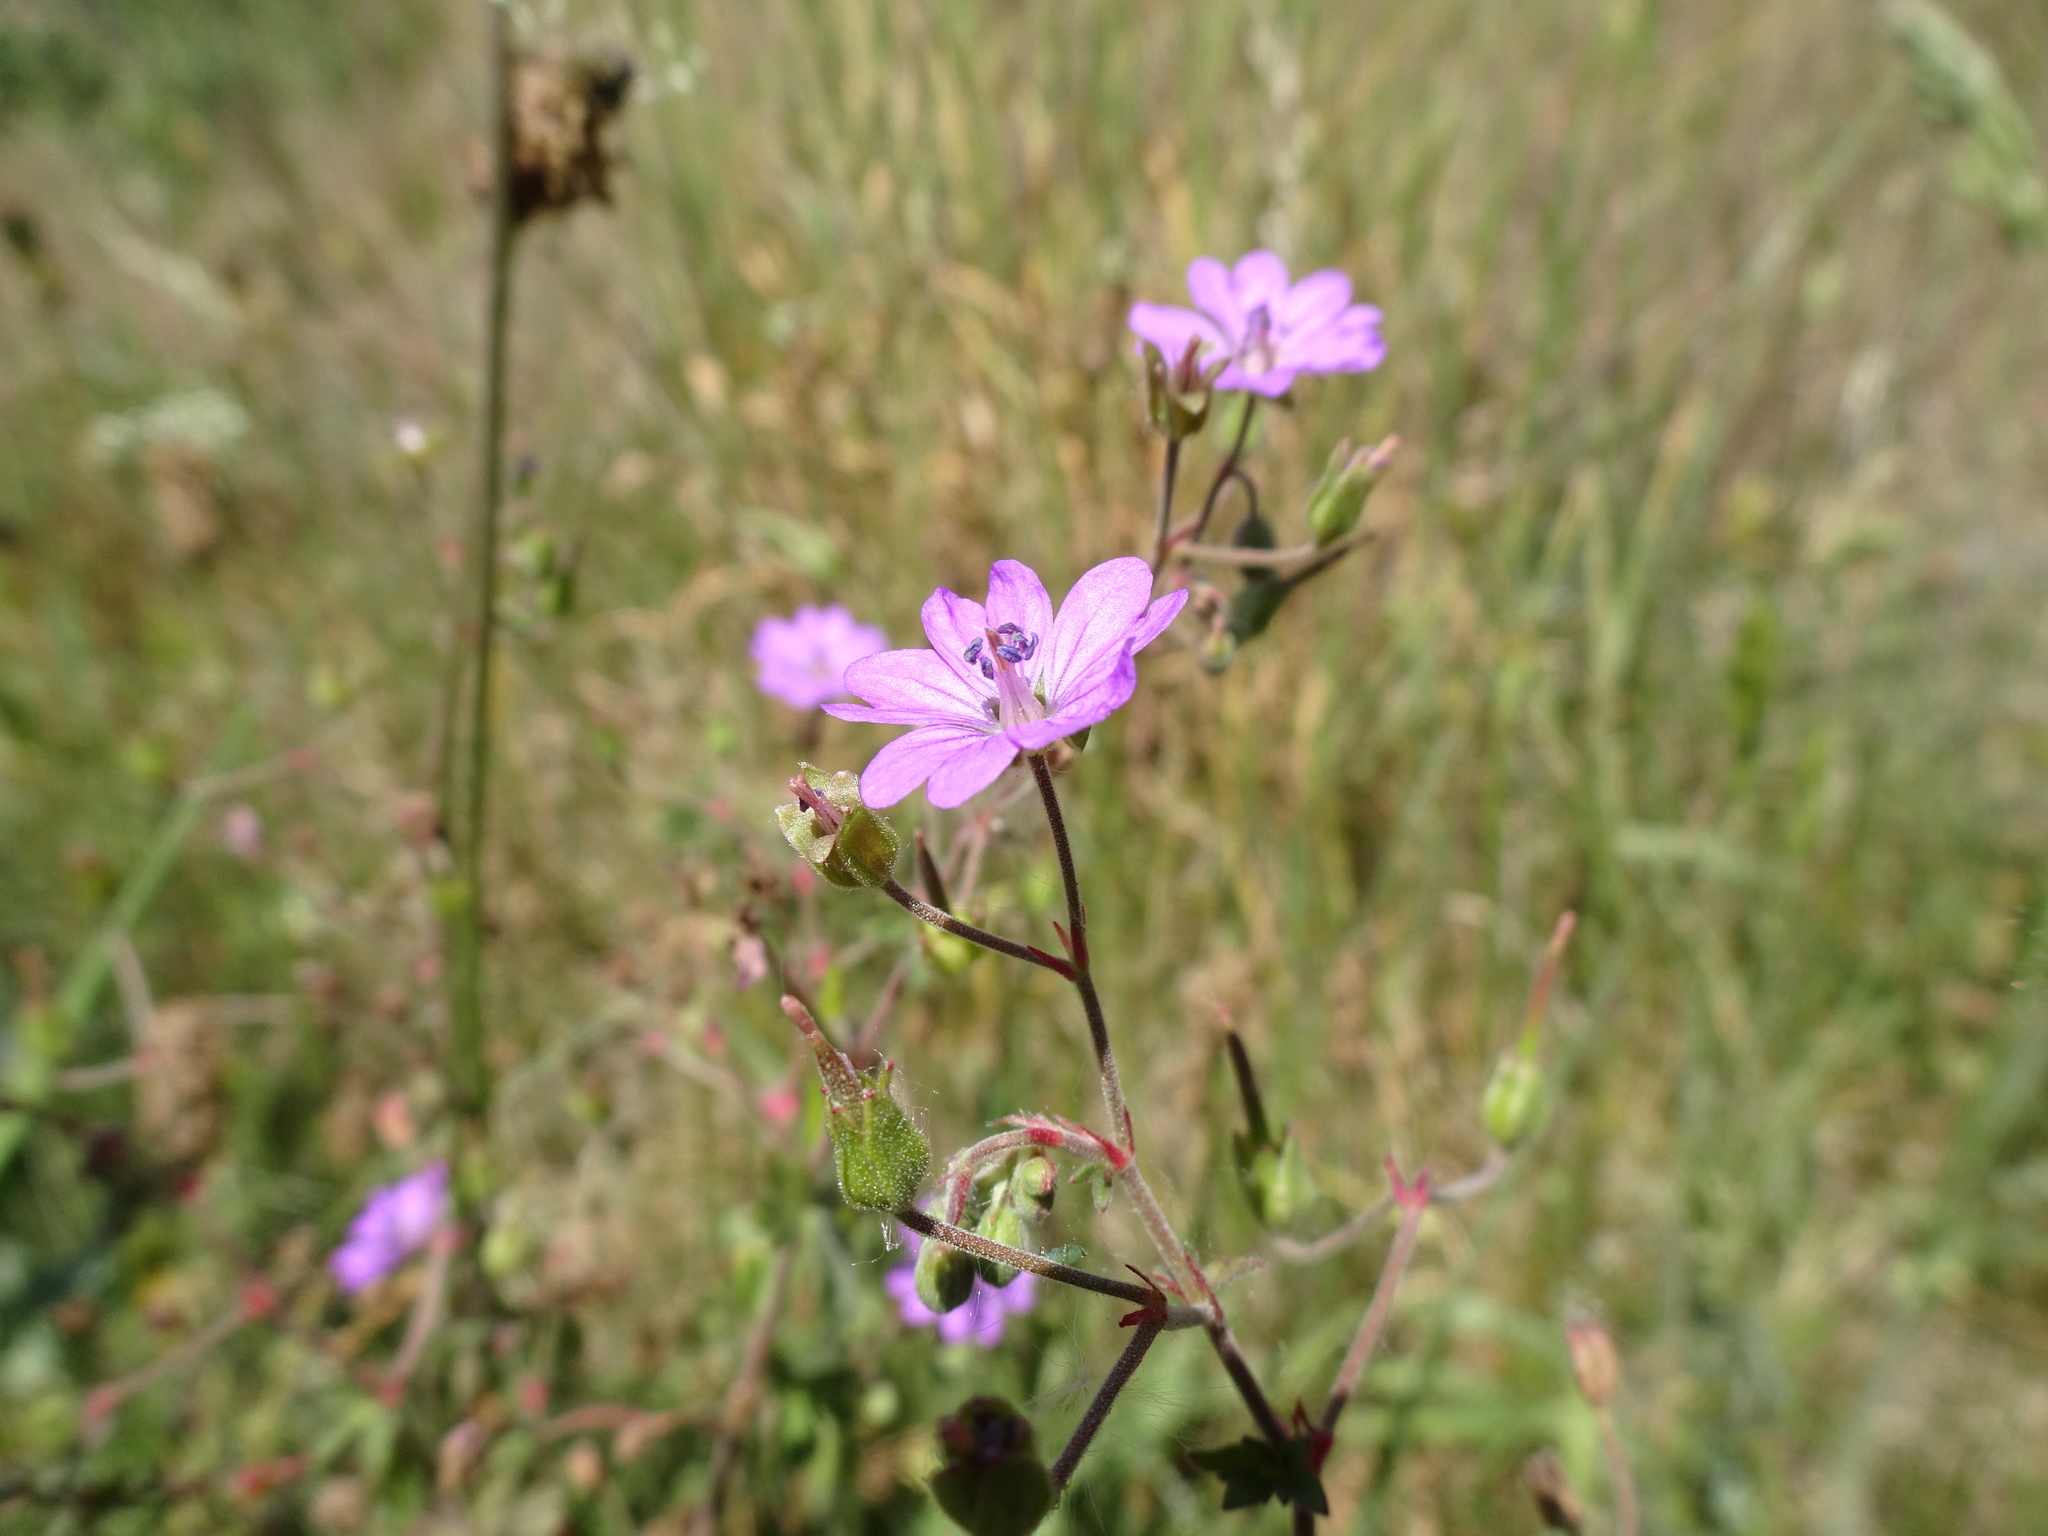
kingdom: Plantae
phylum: Tracheophyta
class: Magnoliopsida
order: Geraniales
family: Geraniaceae
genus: Geranium
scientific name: Geranium pyrenaicum
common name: Hedgerow crane's-bill
